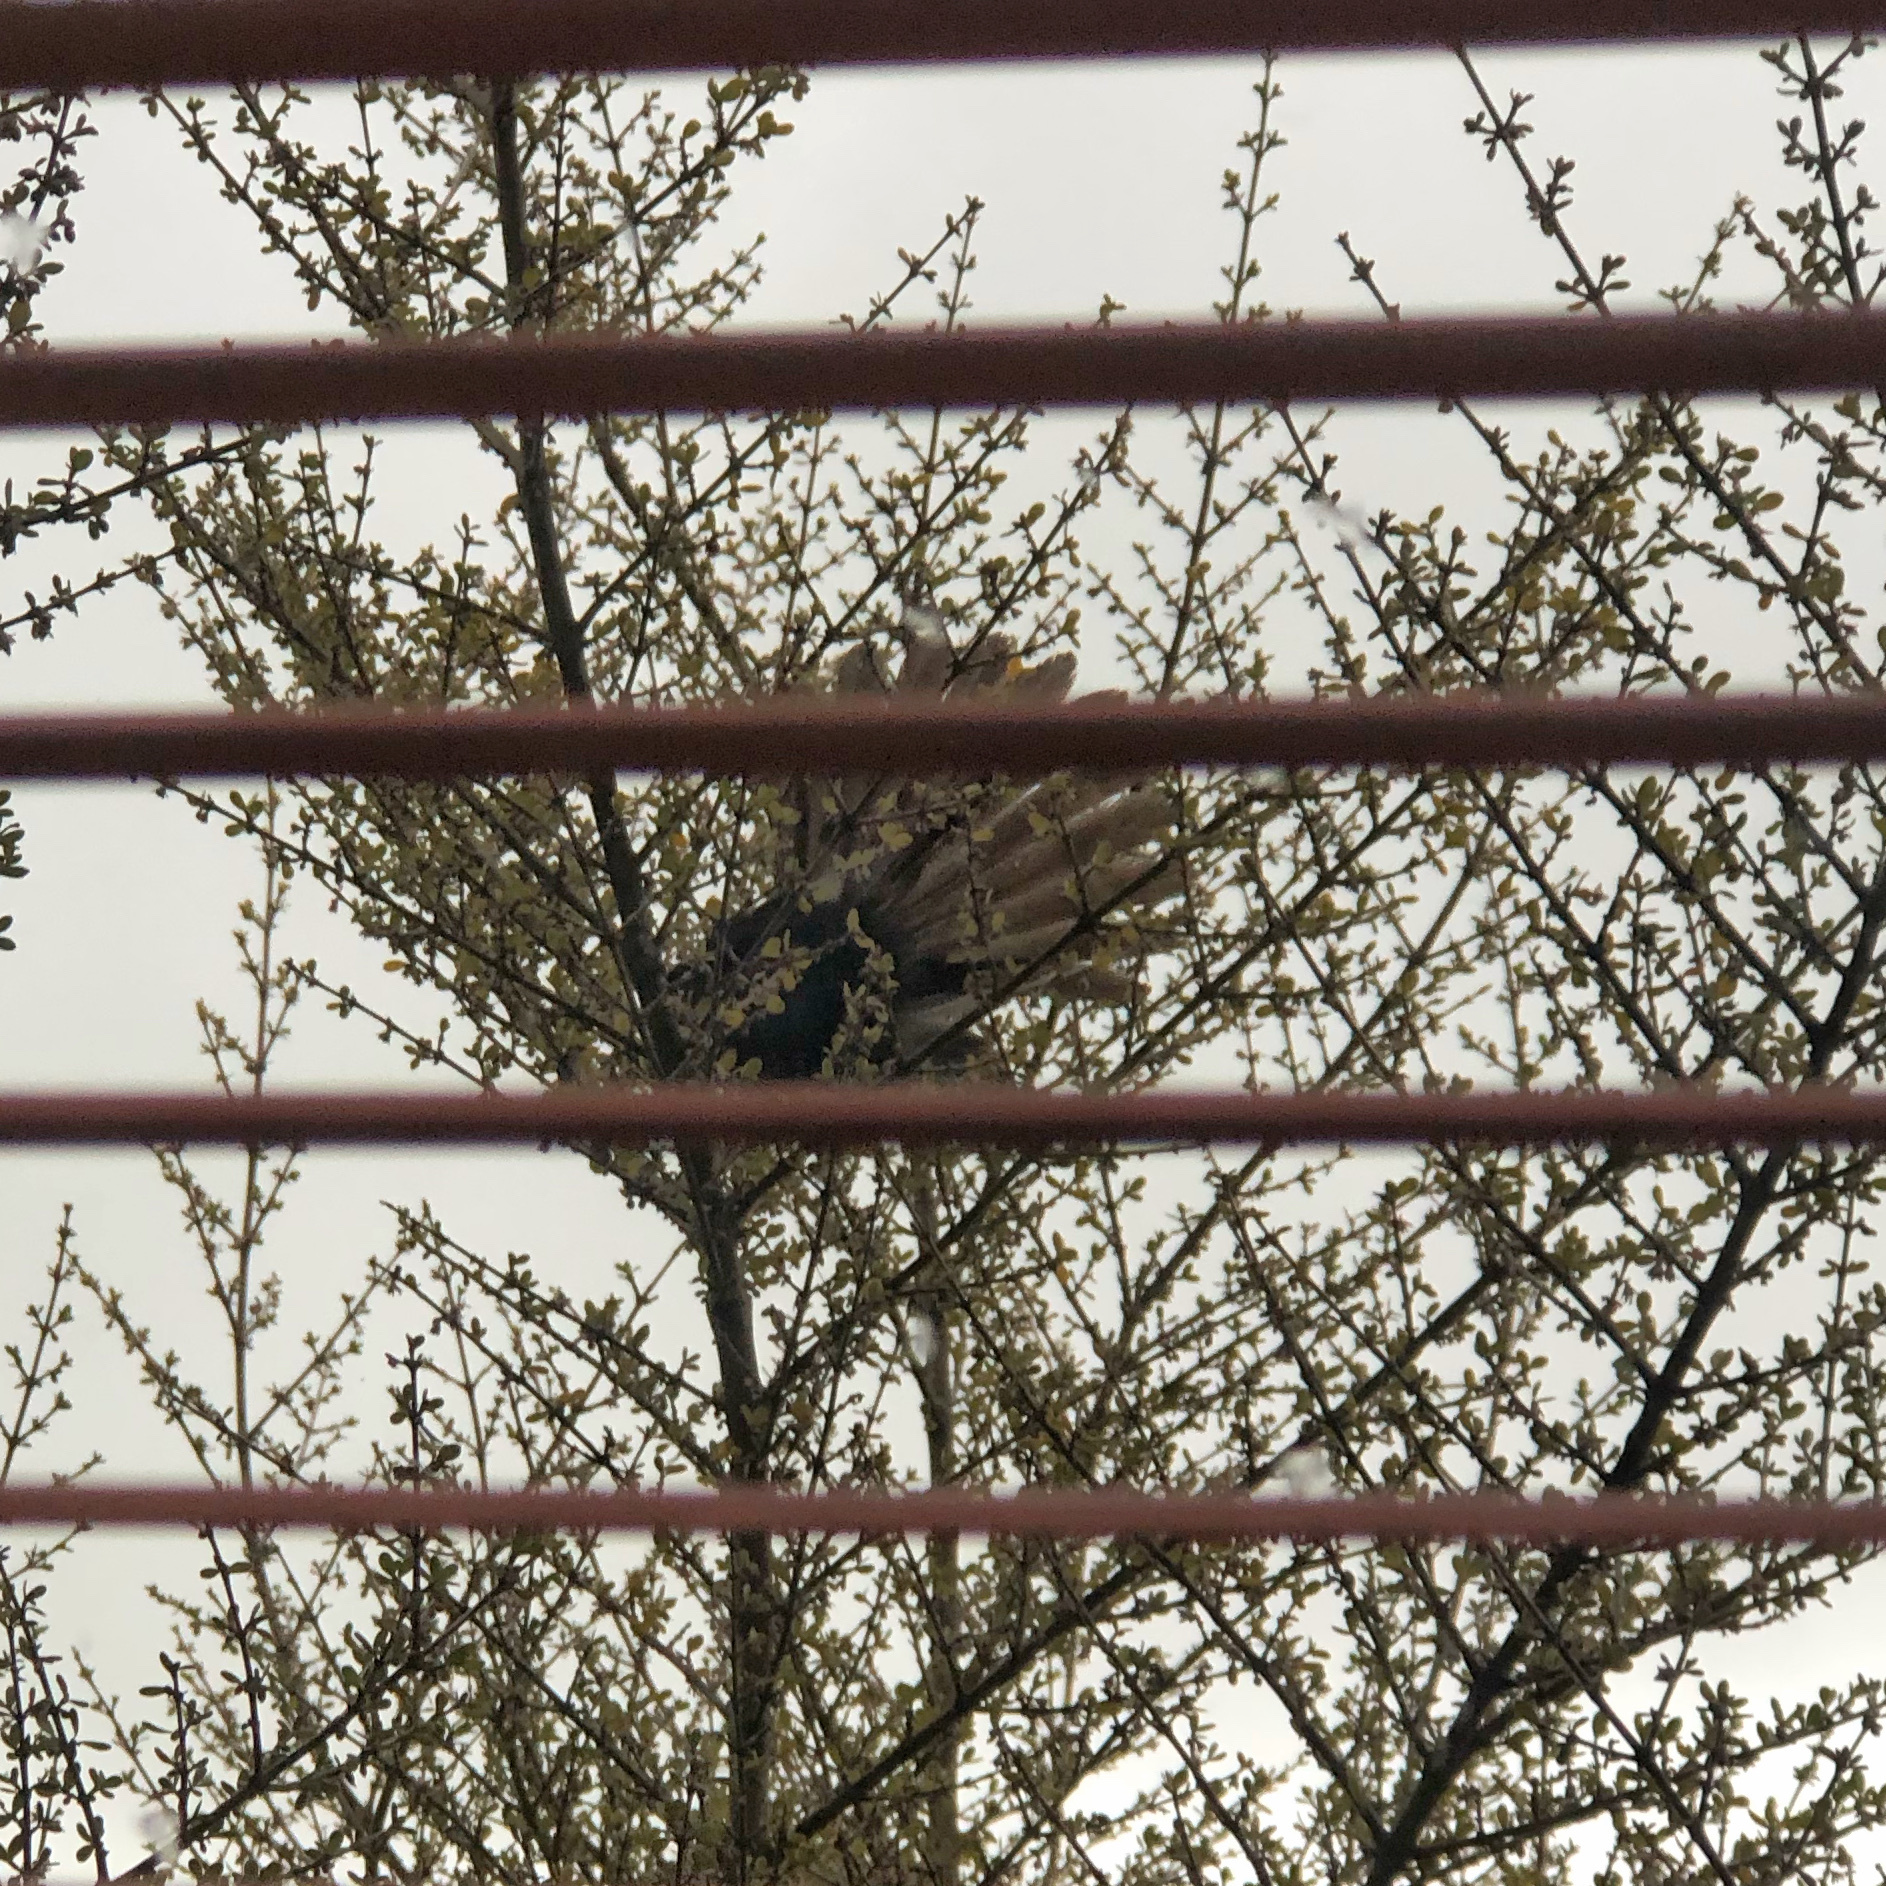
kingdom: Animalia
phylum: Chordata
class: Aves
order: Passeriformes
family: Rhipiduridae
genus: Rhipidura
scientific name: Rhipidura fuliginosa
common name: New zealand fantail
